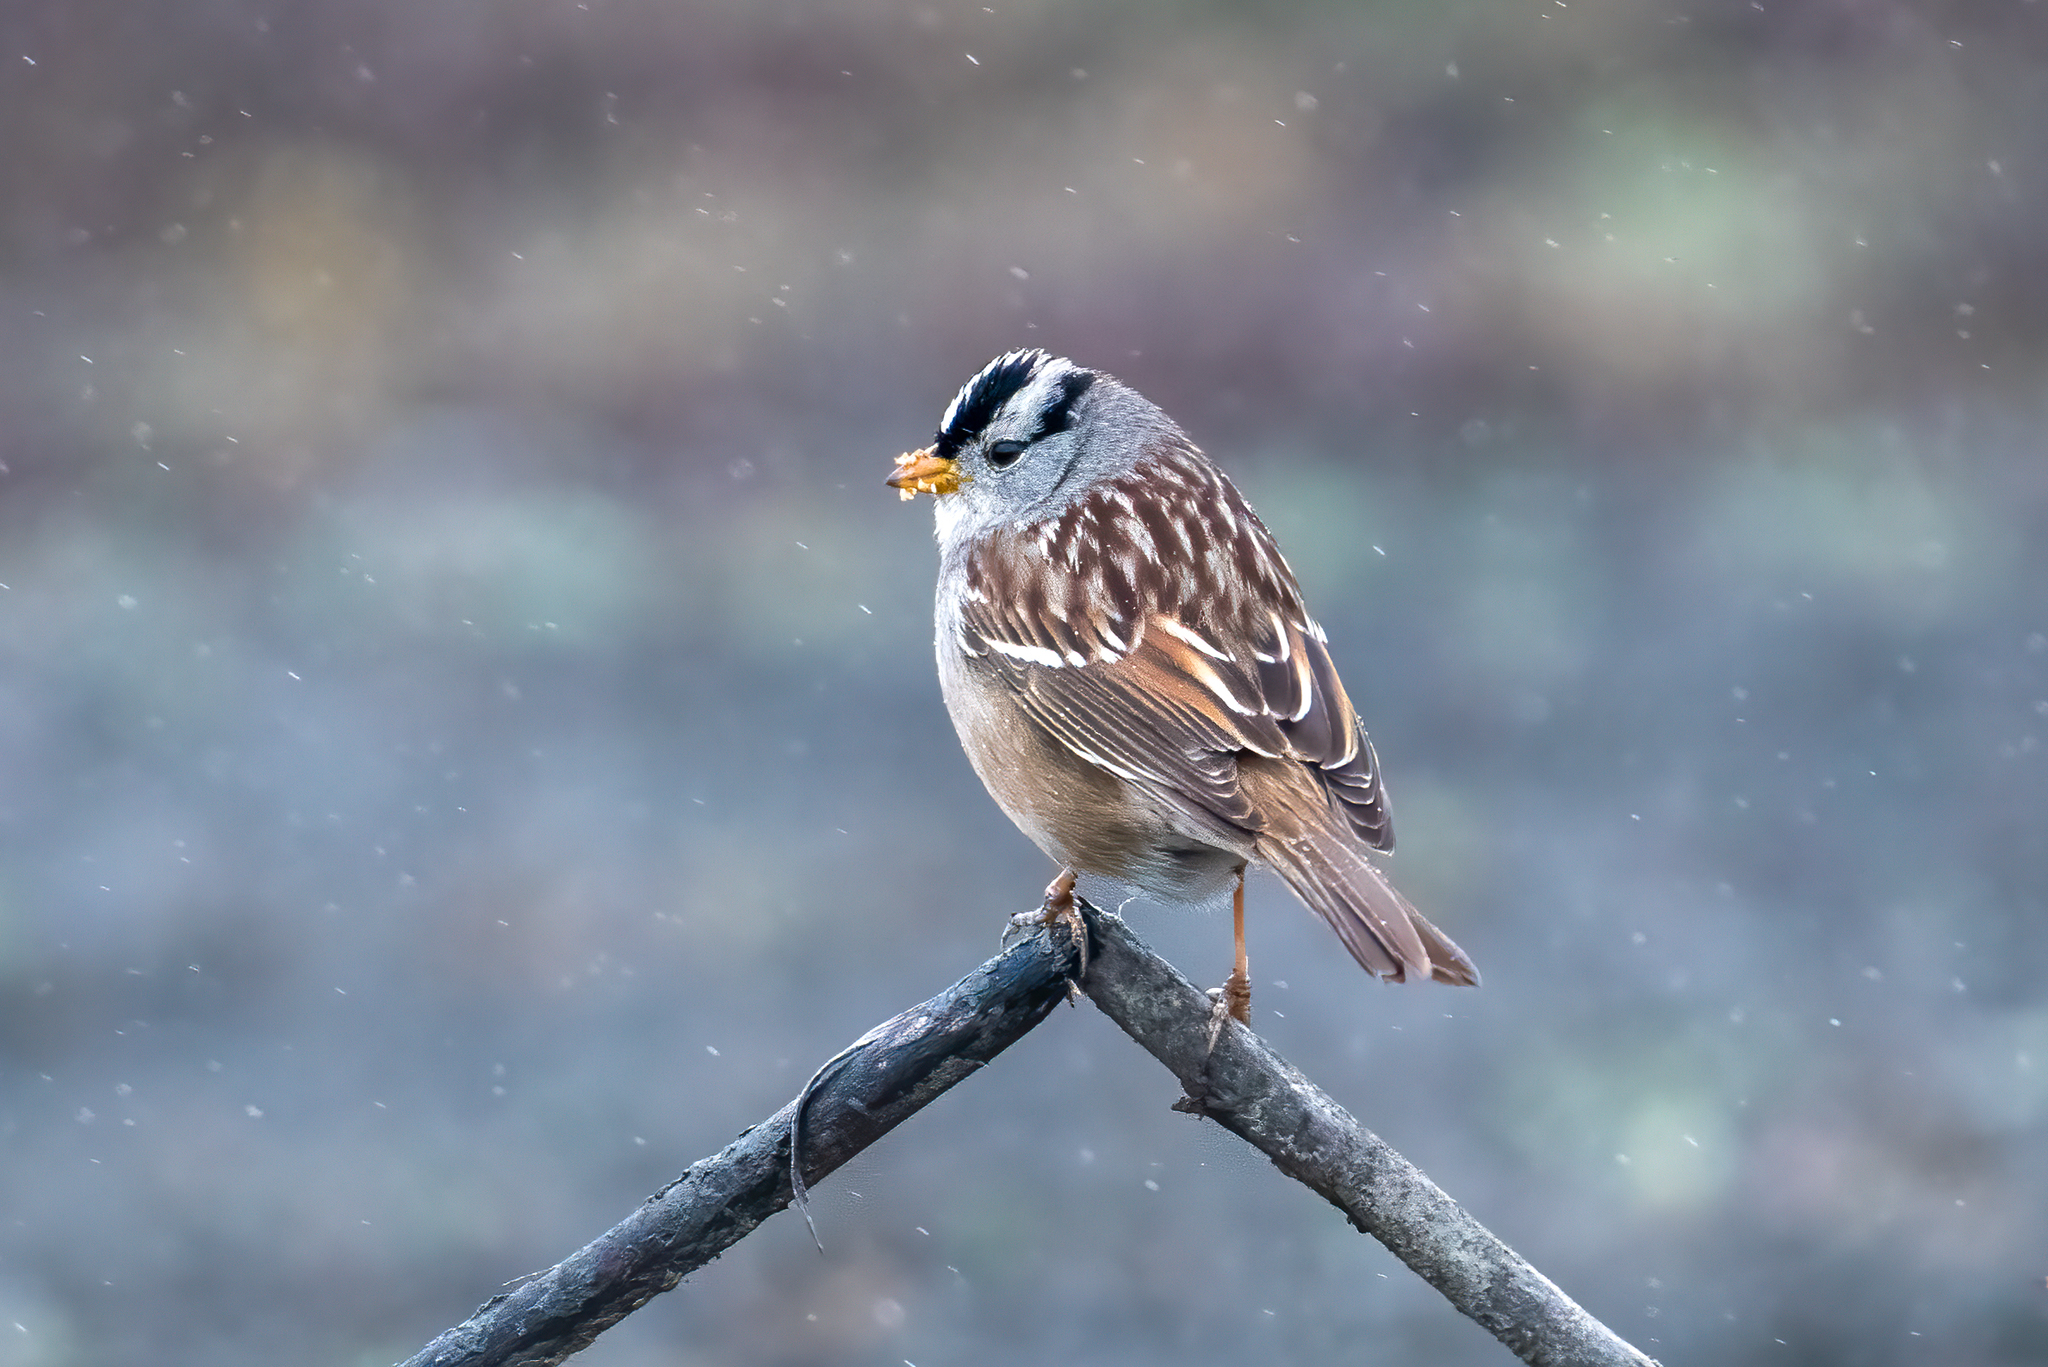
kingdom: Animalia
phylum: Chordata
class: Aves
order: Passeriformes
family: Passerellidae
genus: Zonotrichia
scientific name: Zonotrichia leucophrys
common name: White-crowned sparrow
